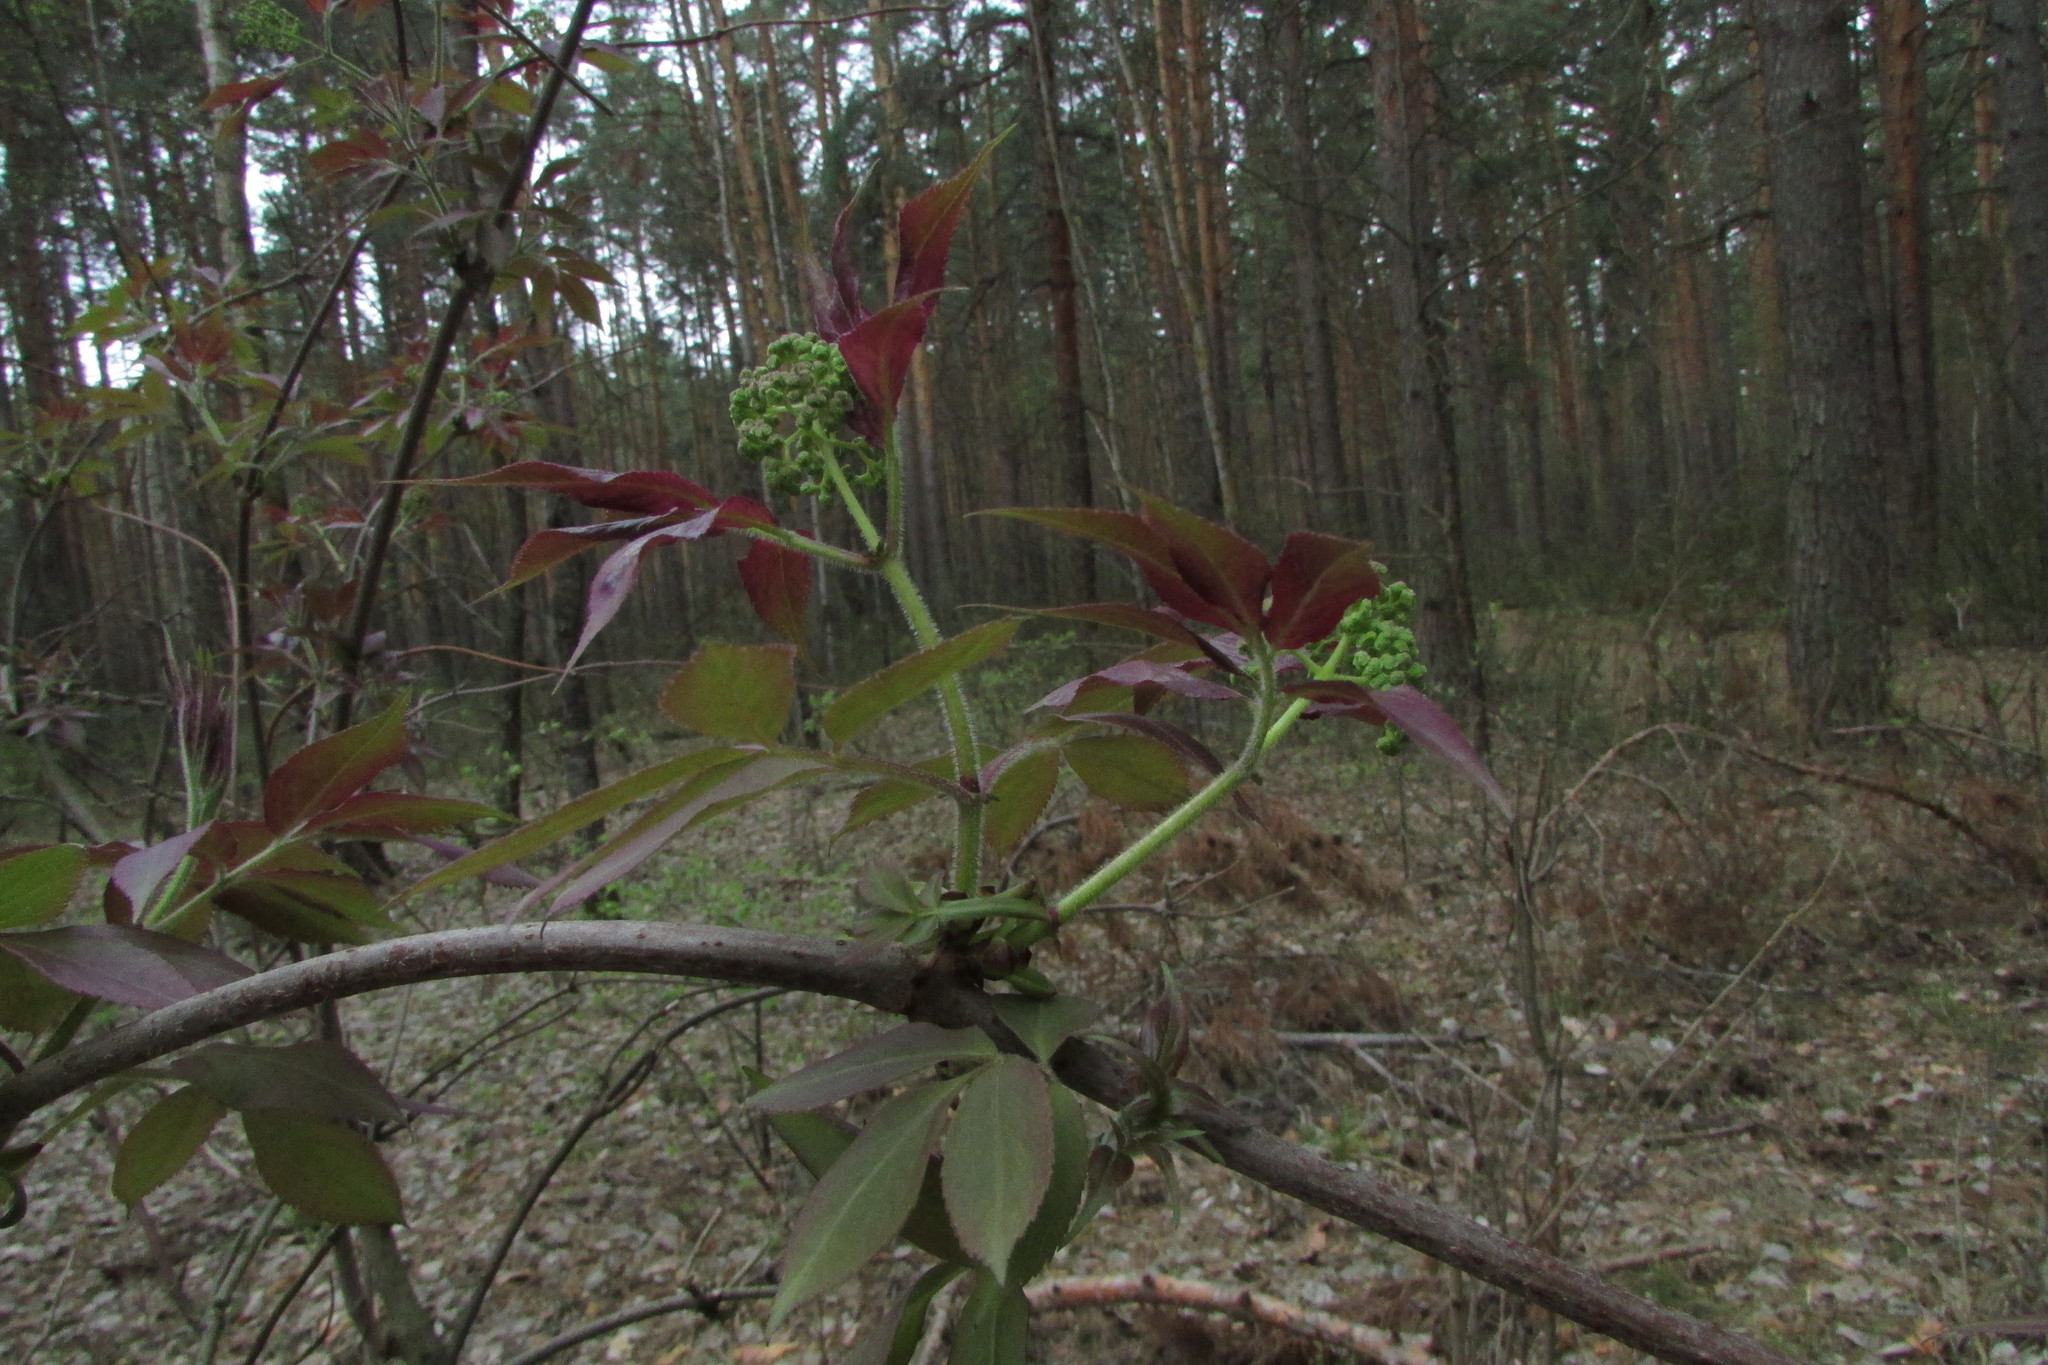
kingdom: Plantae
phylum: Tracheophyta
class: Magnoliopsida
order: Dipsacales
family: Viburnaceae
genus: Sambucus
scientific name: Sambucus sibirica
